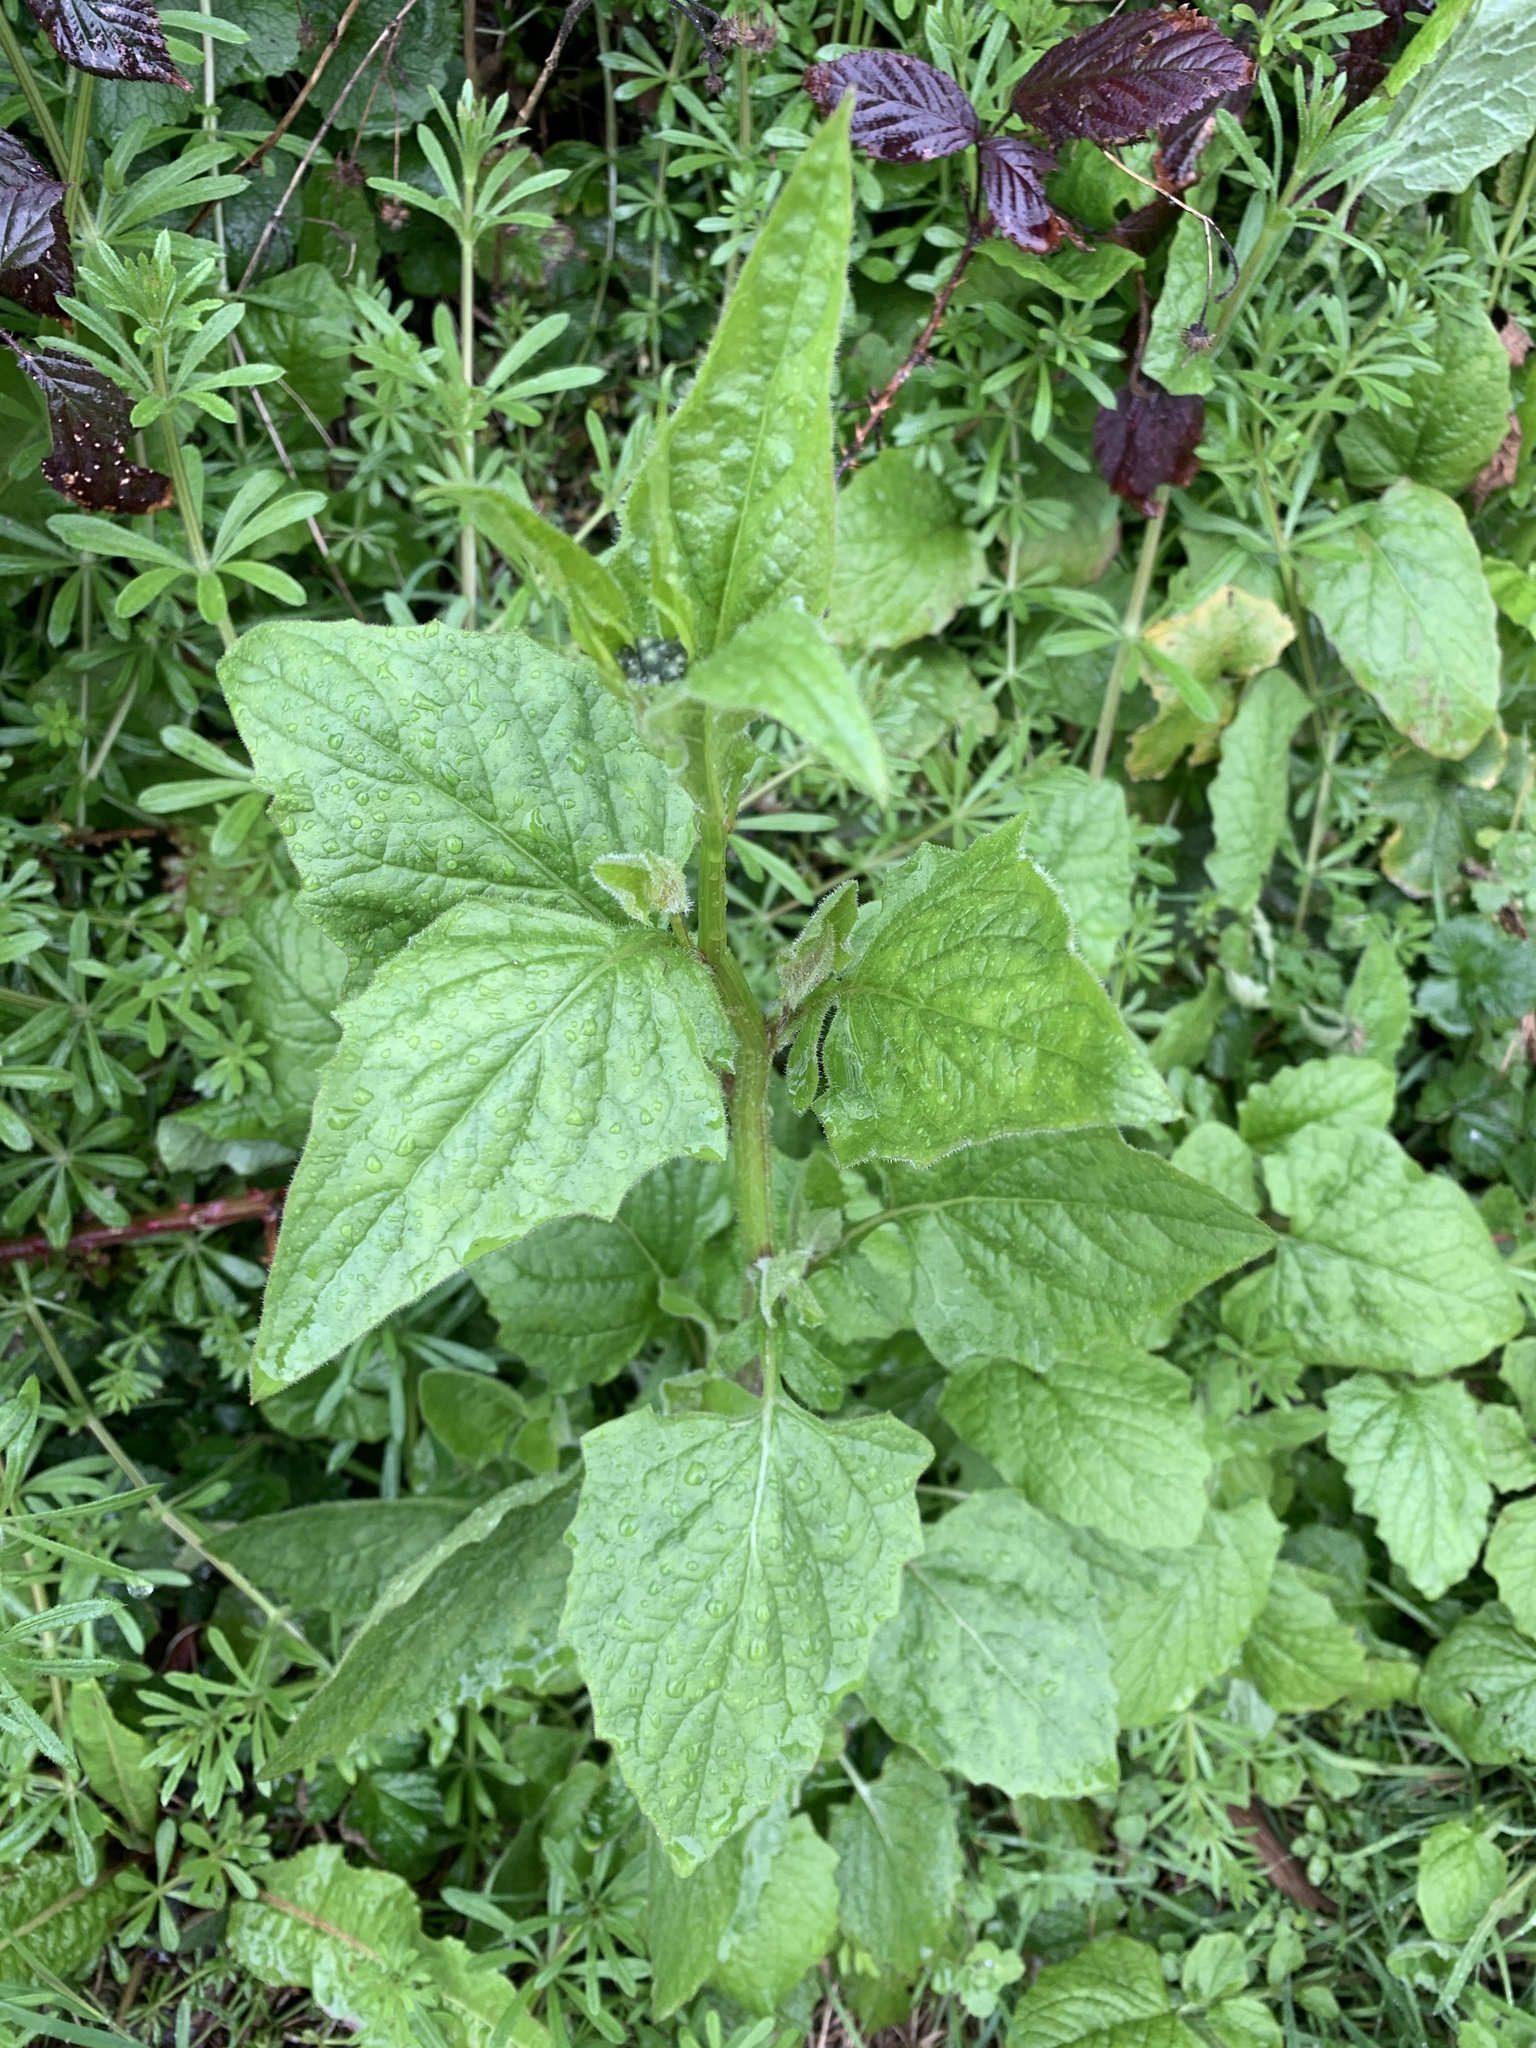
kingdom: Plantae
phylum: Tracheophyta
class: Magnoliopsida
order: Asterales
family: Asteraceae
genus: Lapsana
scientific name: Lapsana communis
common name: Nipplewort
